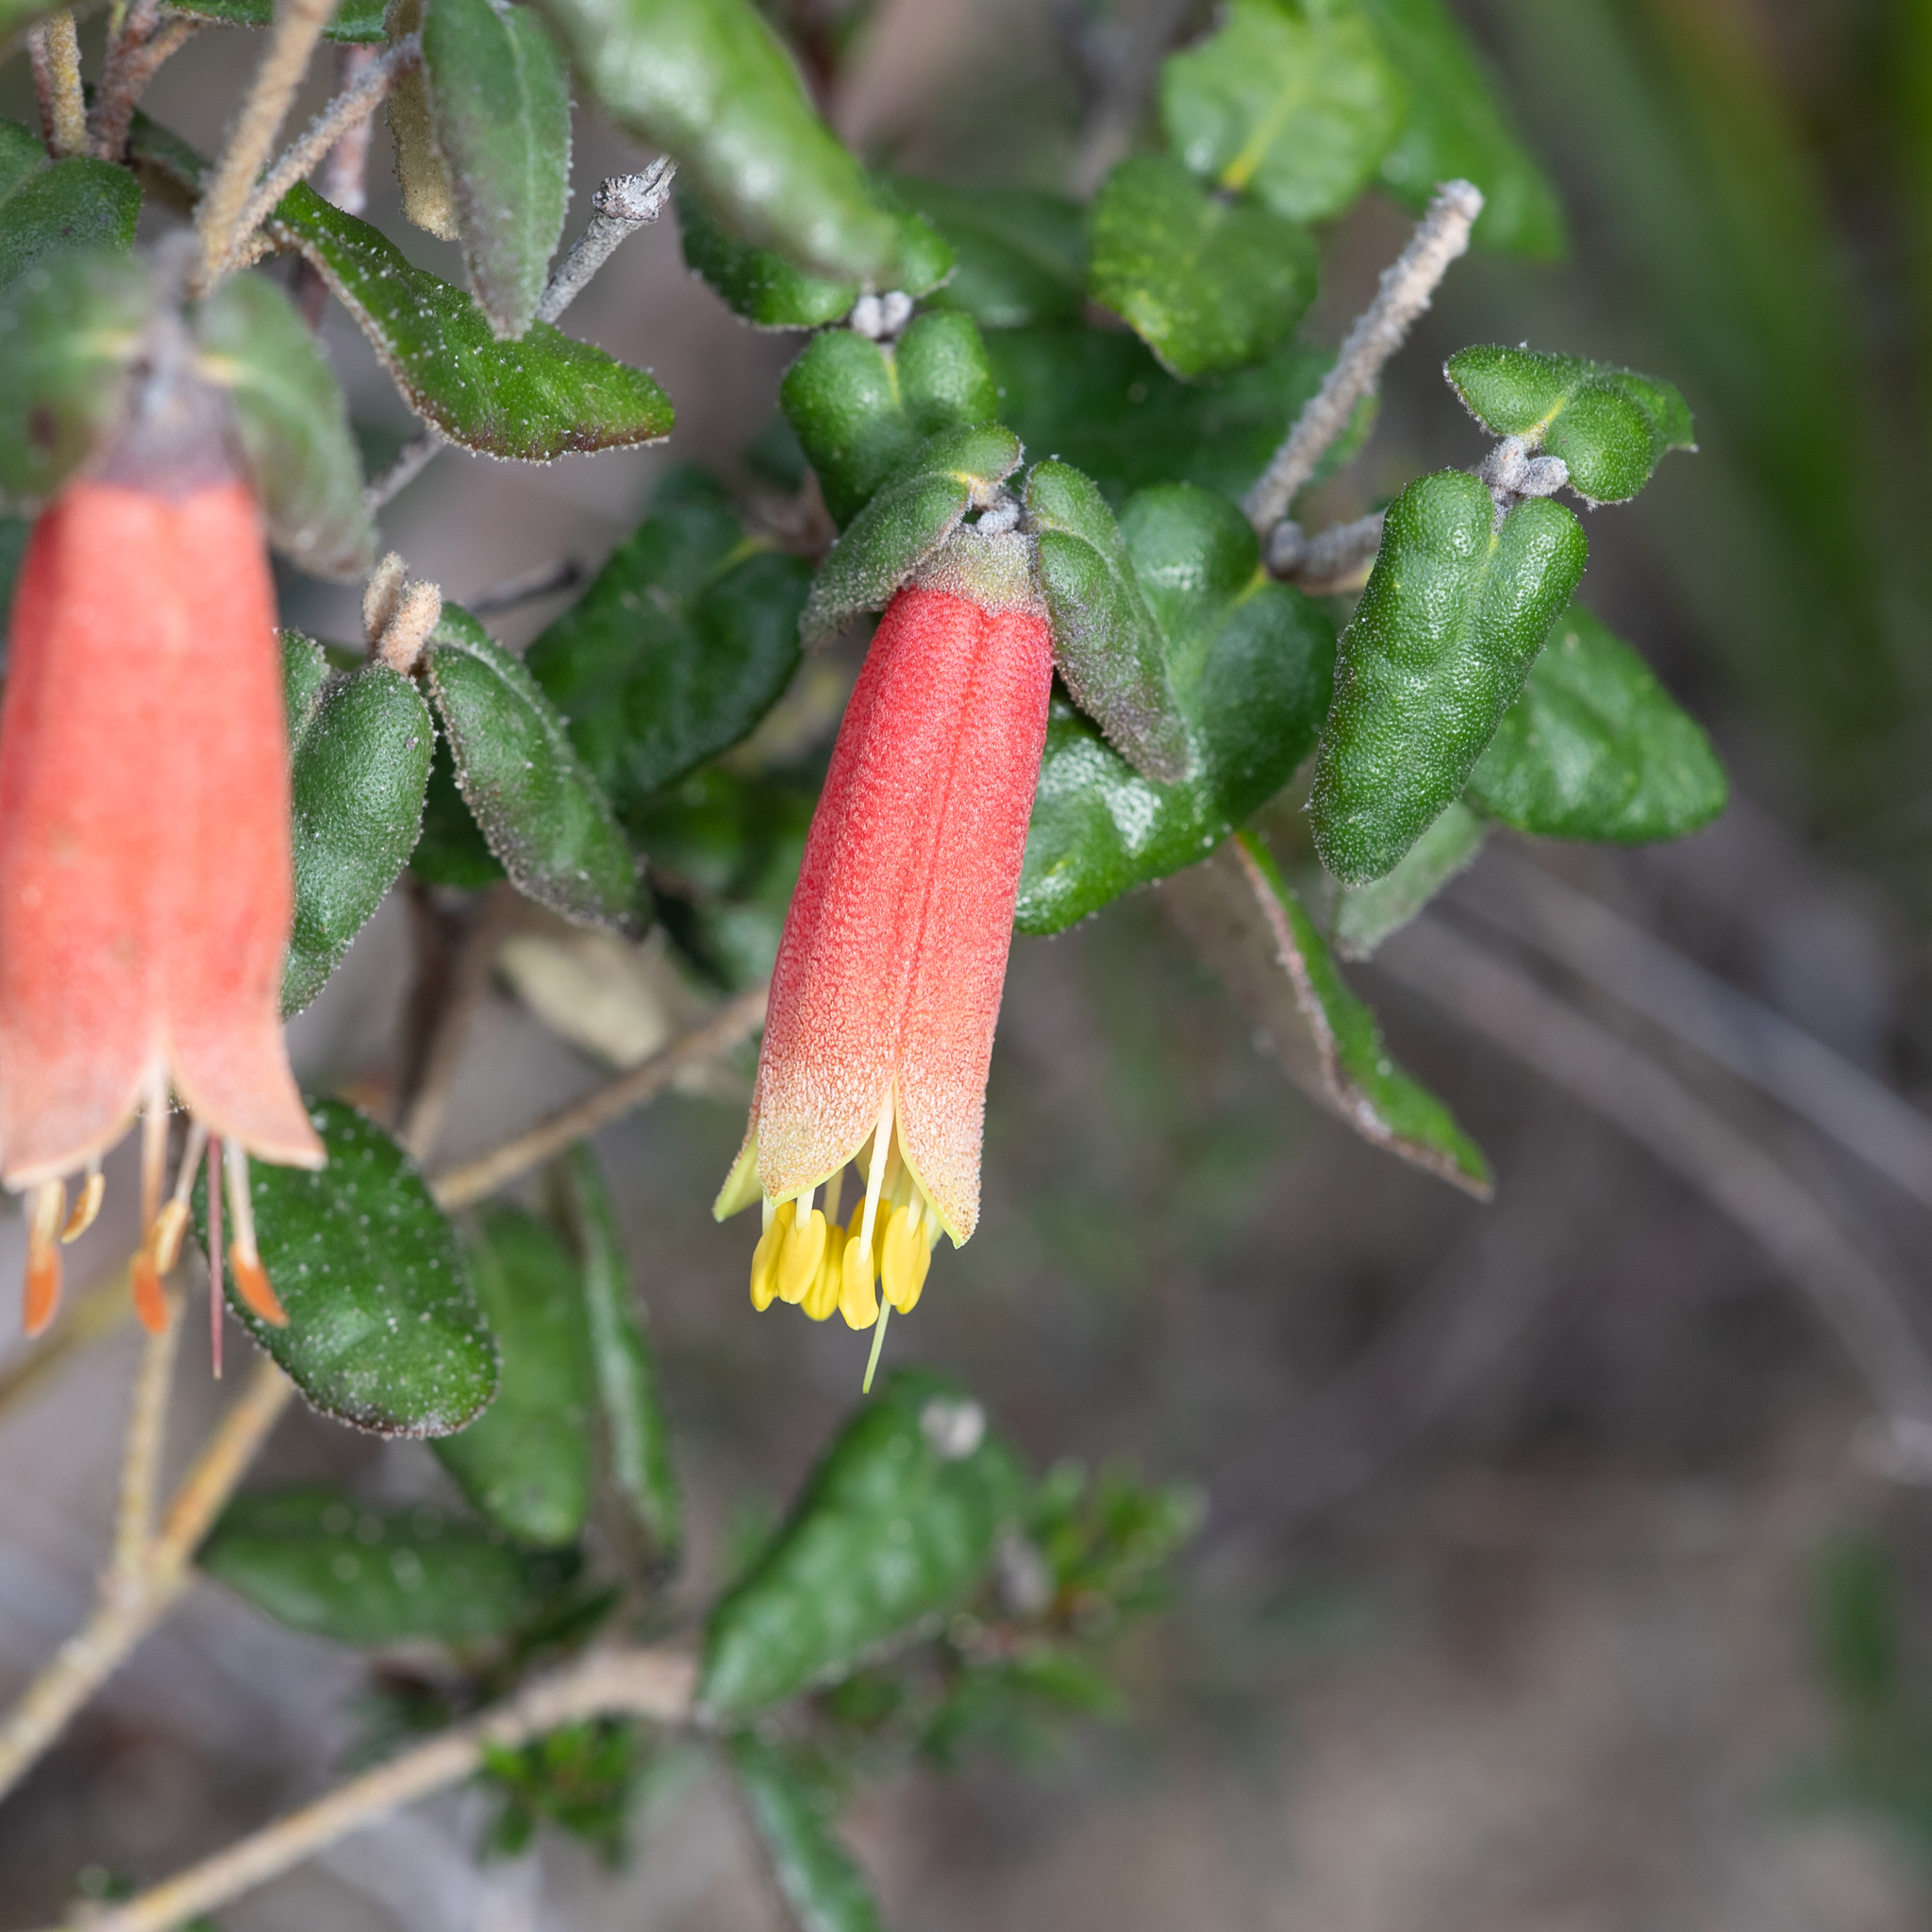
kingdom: Plantae
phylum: Tracheophyta
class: Magnoliopsida
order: Sapindales
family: Rutaceae
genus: Correa
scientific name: Correa reflexa
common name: Common correa
